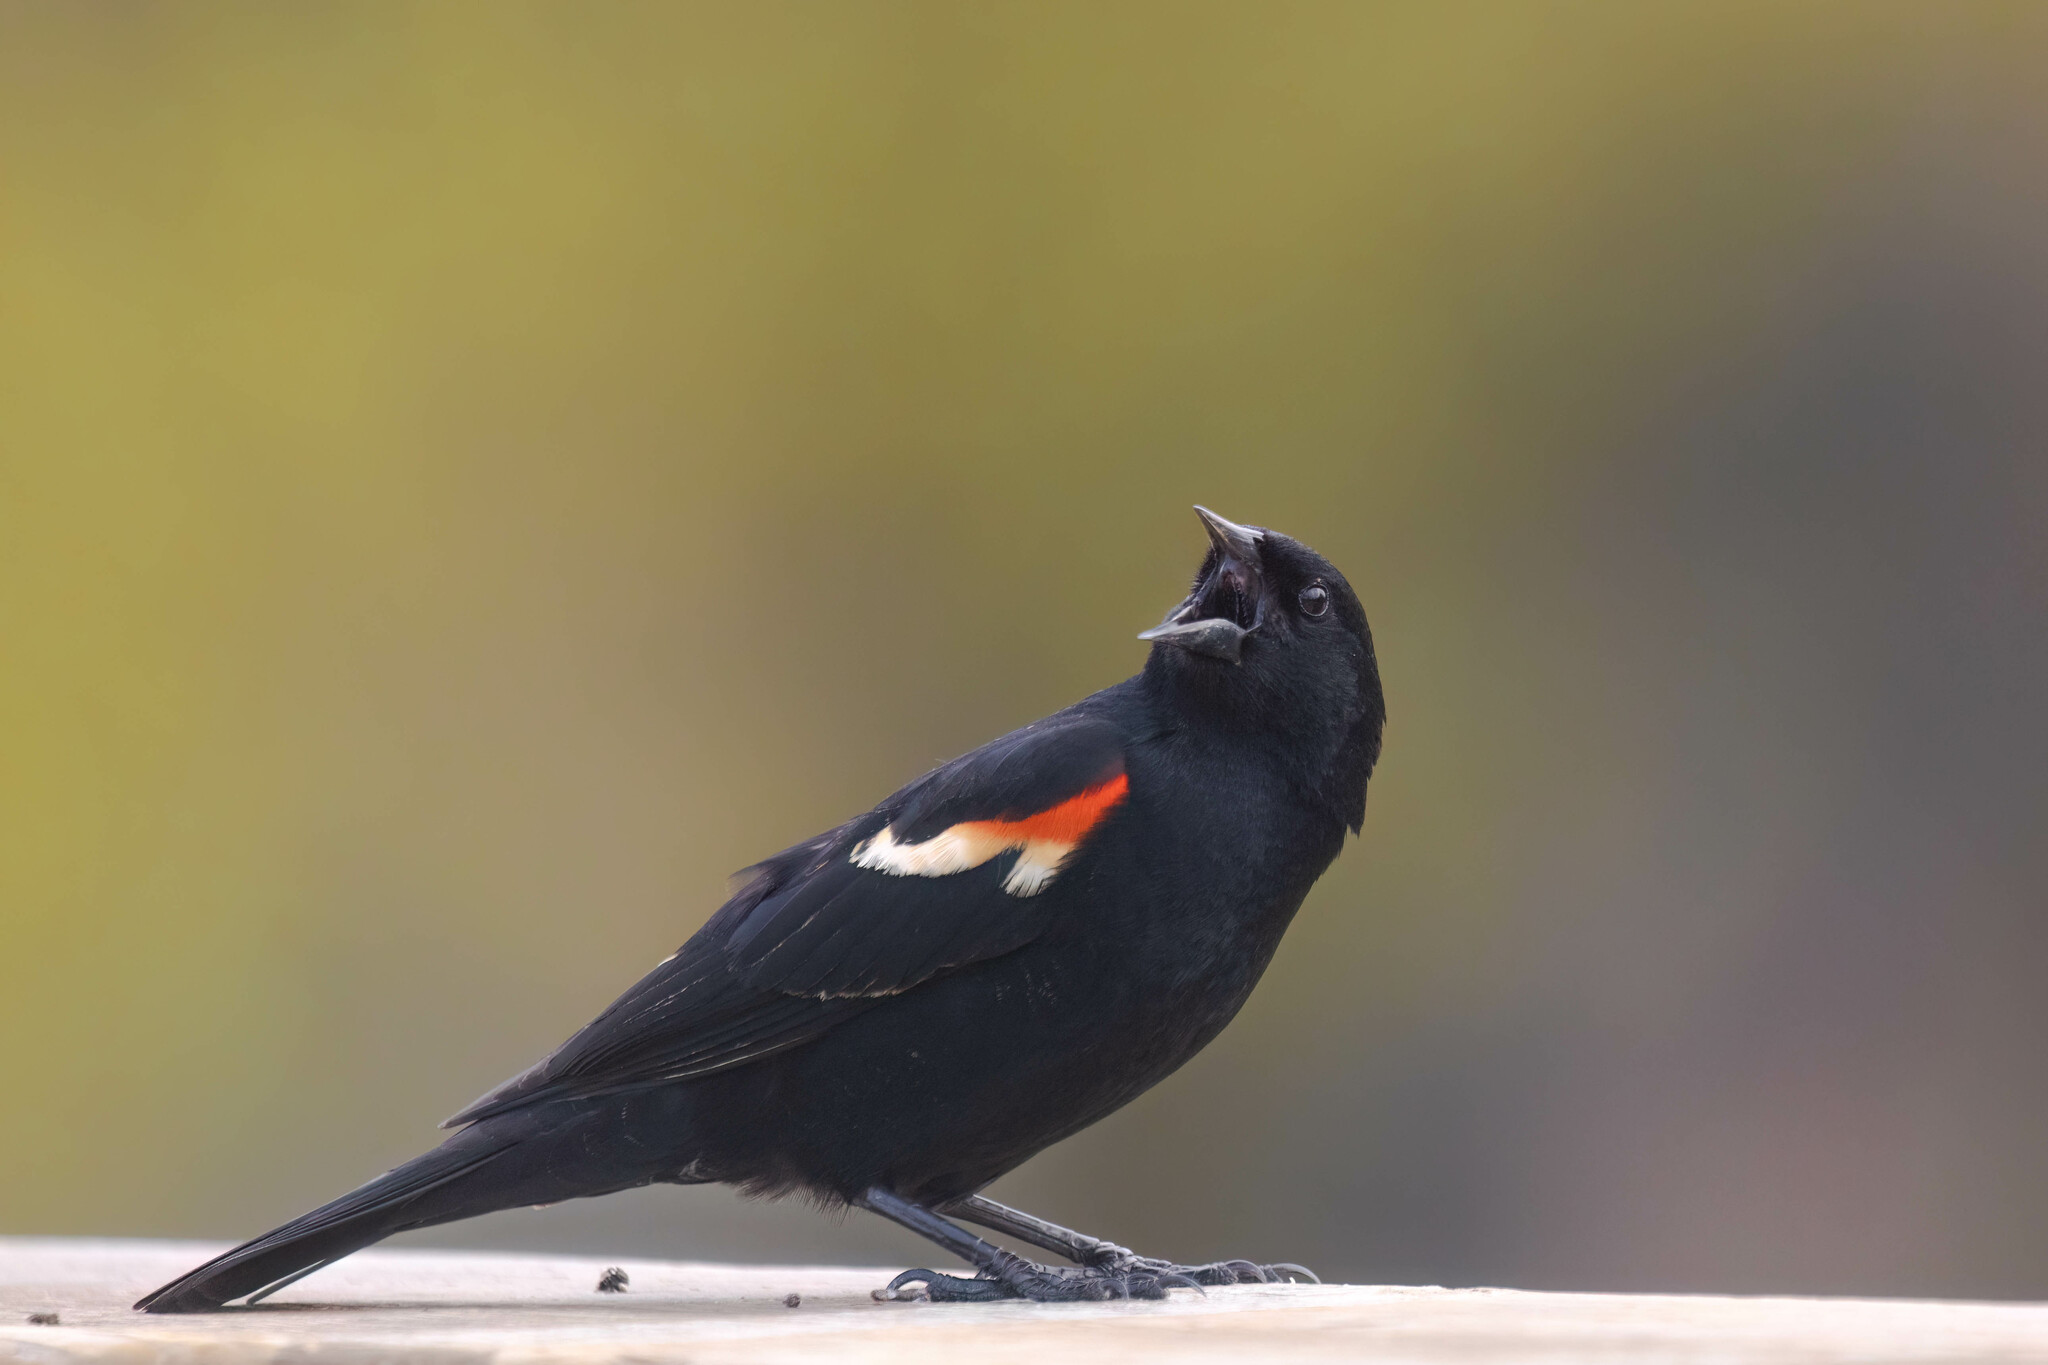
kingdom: Animalia
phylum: Chordata
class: Aves
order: Passeriformes
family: Icteridae
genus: Agelaius
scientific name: Agelaius phoeniceus
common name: Red-winged blackbird
